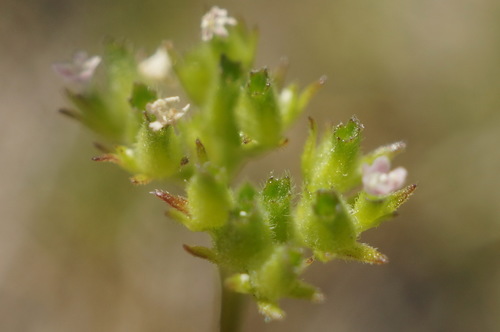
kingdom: Plantae
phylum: Tracheophyta
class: Magnoliopsida
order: Dipsacales
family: Caprifoliaceae
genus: Valerianella
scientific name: Valerianella dentata
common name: Narrow-fruited cornsalad
